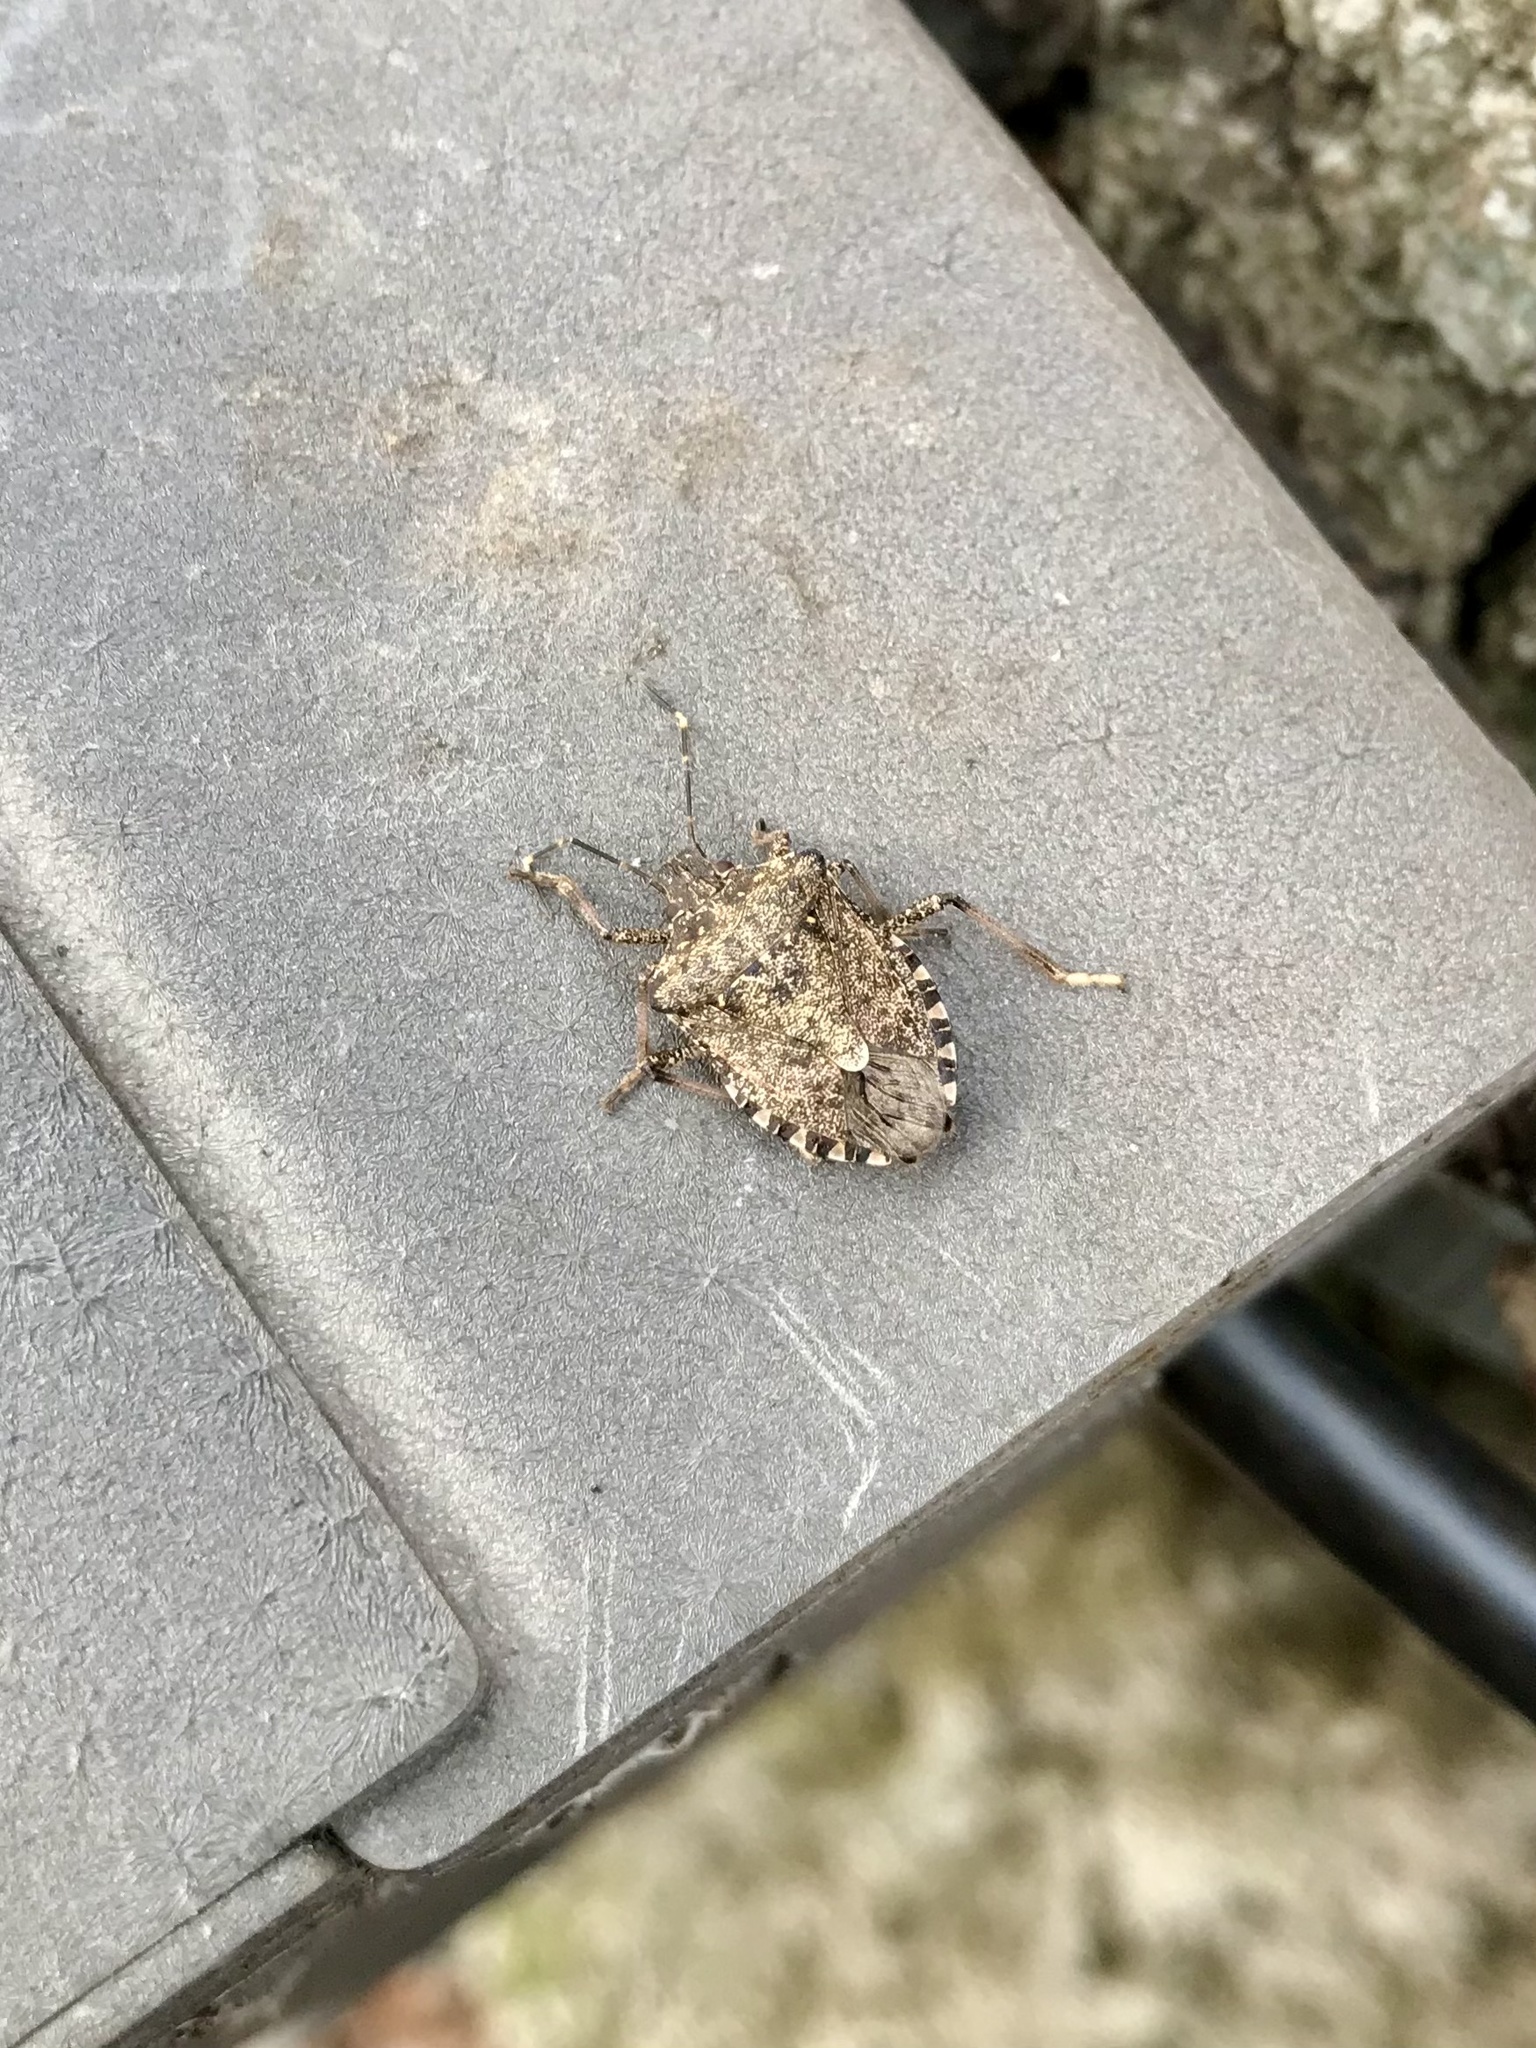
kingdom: Animalia
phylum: Arthropoda
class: Insecta
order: Hemiptera
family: Pentatomidae
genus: Halyomorpha
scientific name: Halyomorpha halys
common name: Brown marmorated stink bug
